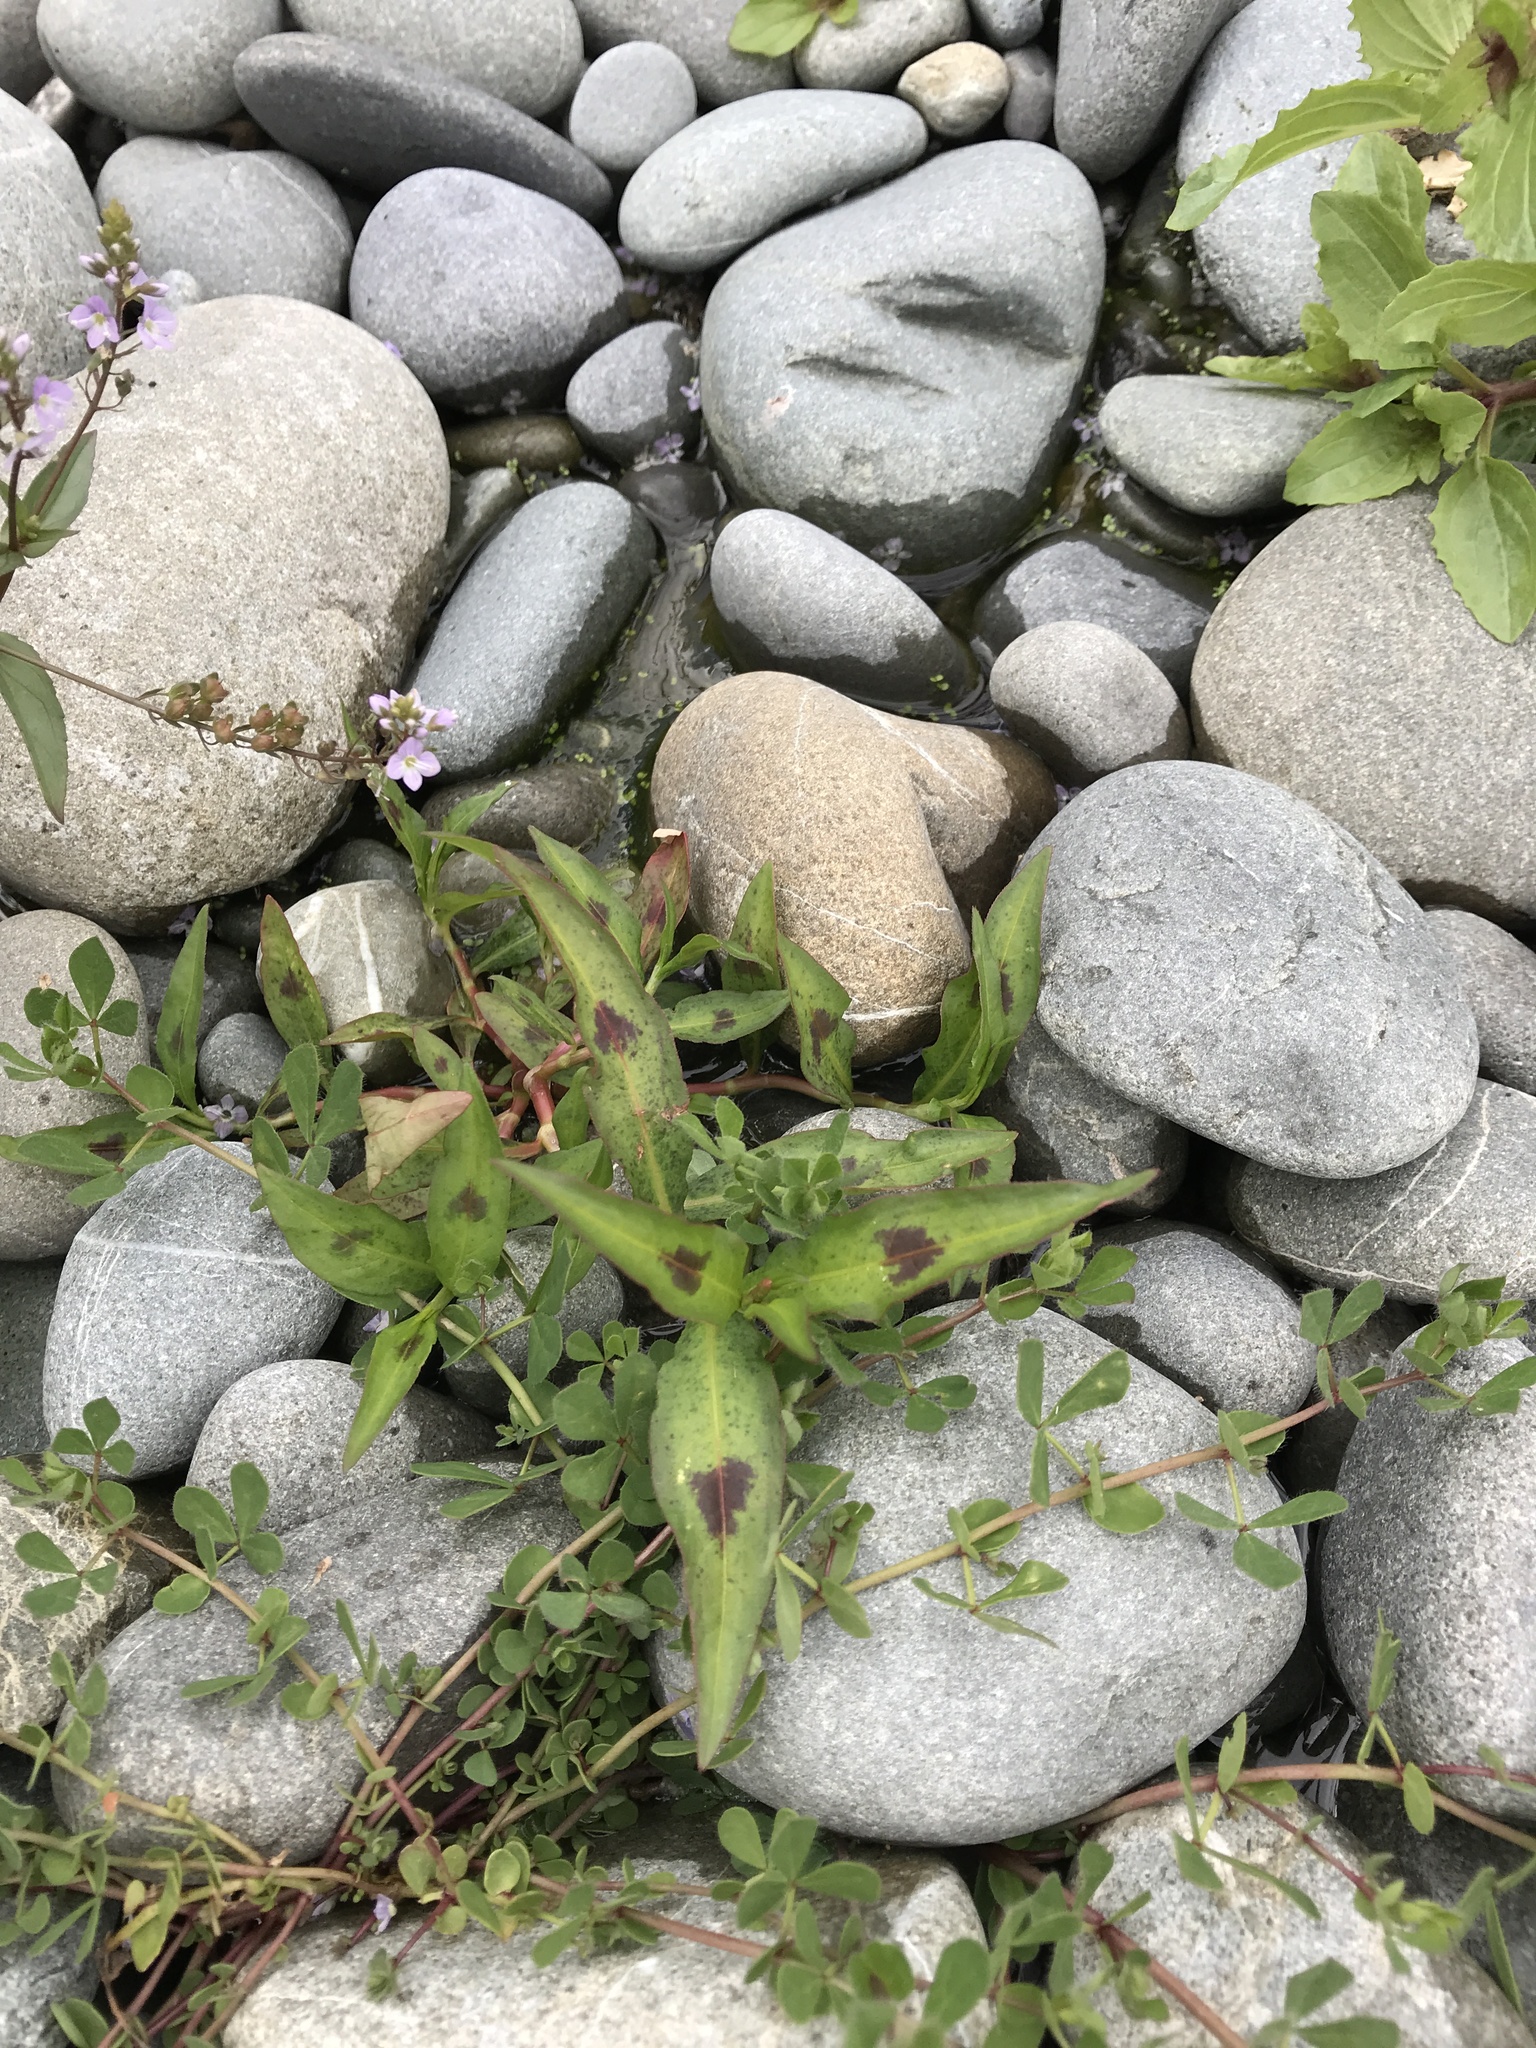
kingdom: Plantae
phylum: Tracheophyta
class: Magnoliopsida
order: Caryophyllales
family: Polygonaceae
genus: Persicaria
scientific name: Persicaria maculosa
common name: Redshank
